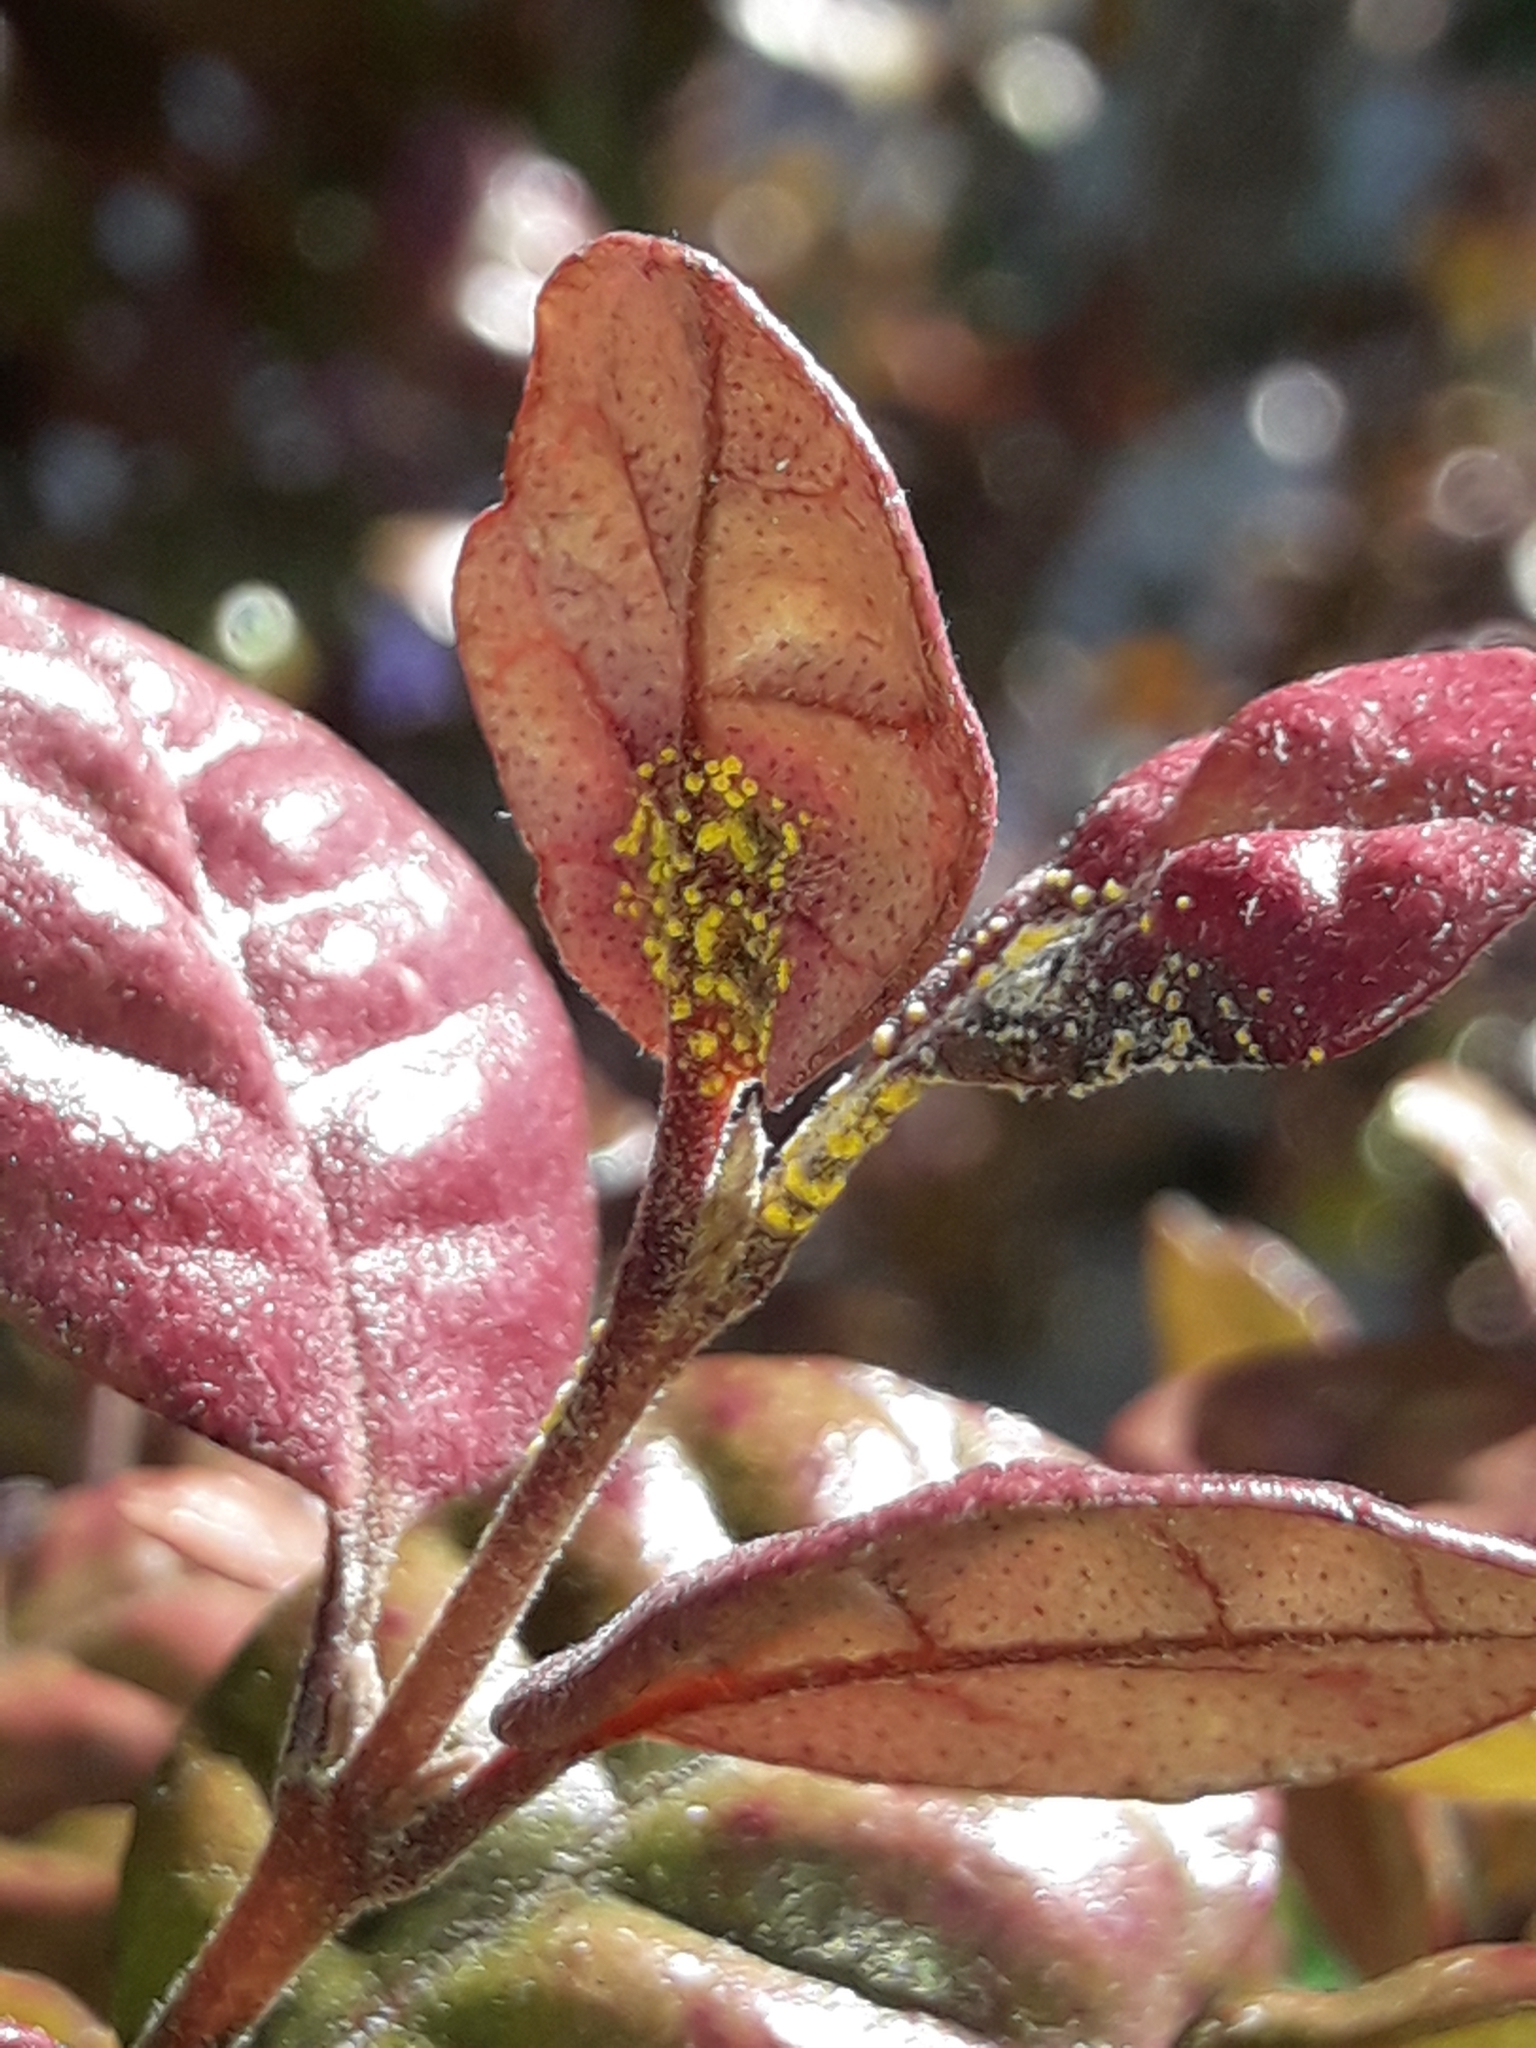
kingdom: Fungi
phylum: Basidiomycota
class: Pucciniomycetes
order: Pucciniales
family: Sphaerophragmiaceae
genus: Austropuccinia
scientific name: Austropuccinia psidii
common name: Myrtle rust
